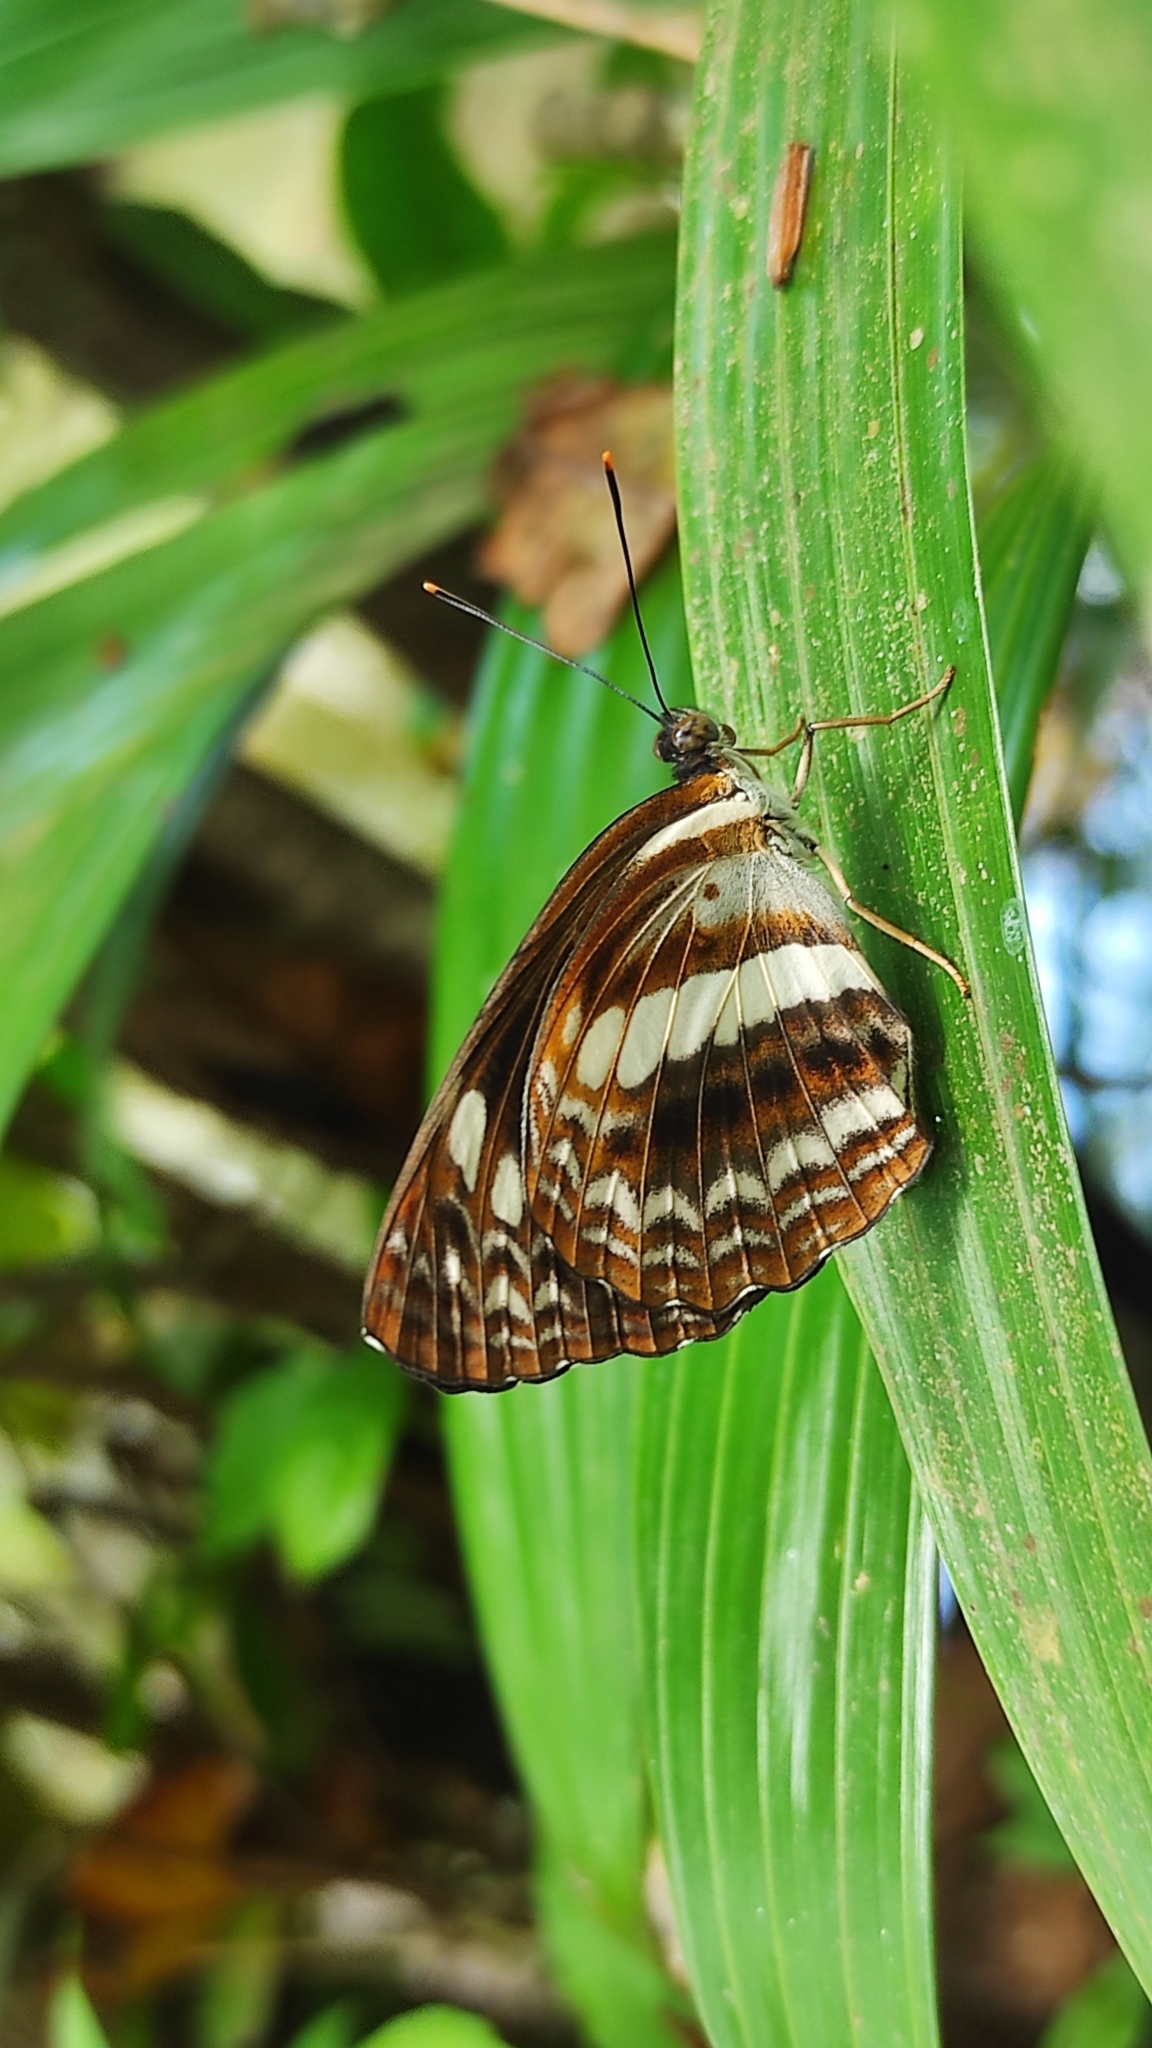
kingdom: Animalia
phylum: Arthropoda
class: Insecta
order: Lepidoptera
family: Nymphalidae
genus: Neptis
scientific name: Neptis jumbah
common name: Chestnut-streaked sailer
